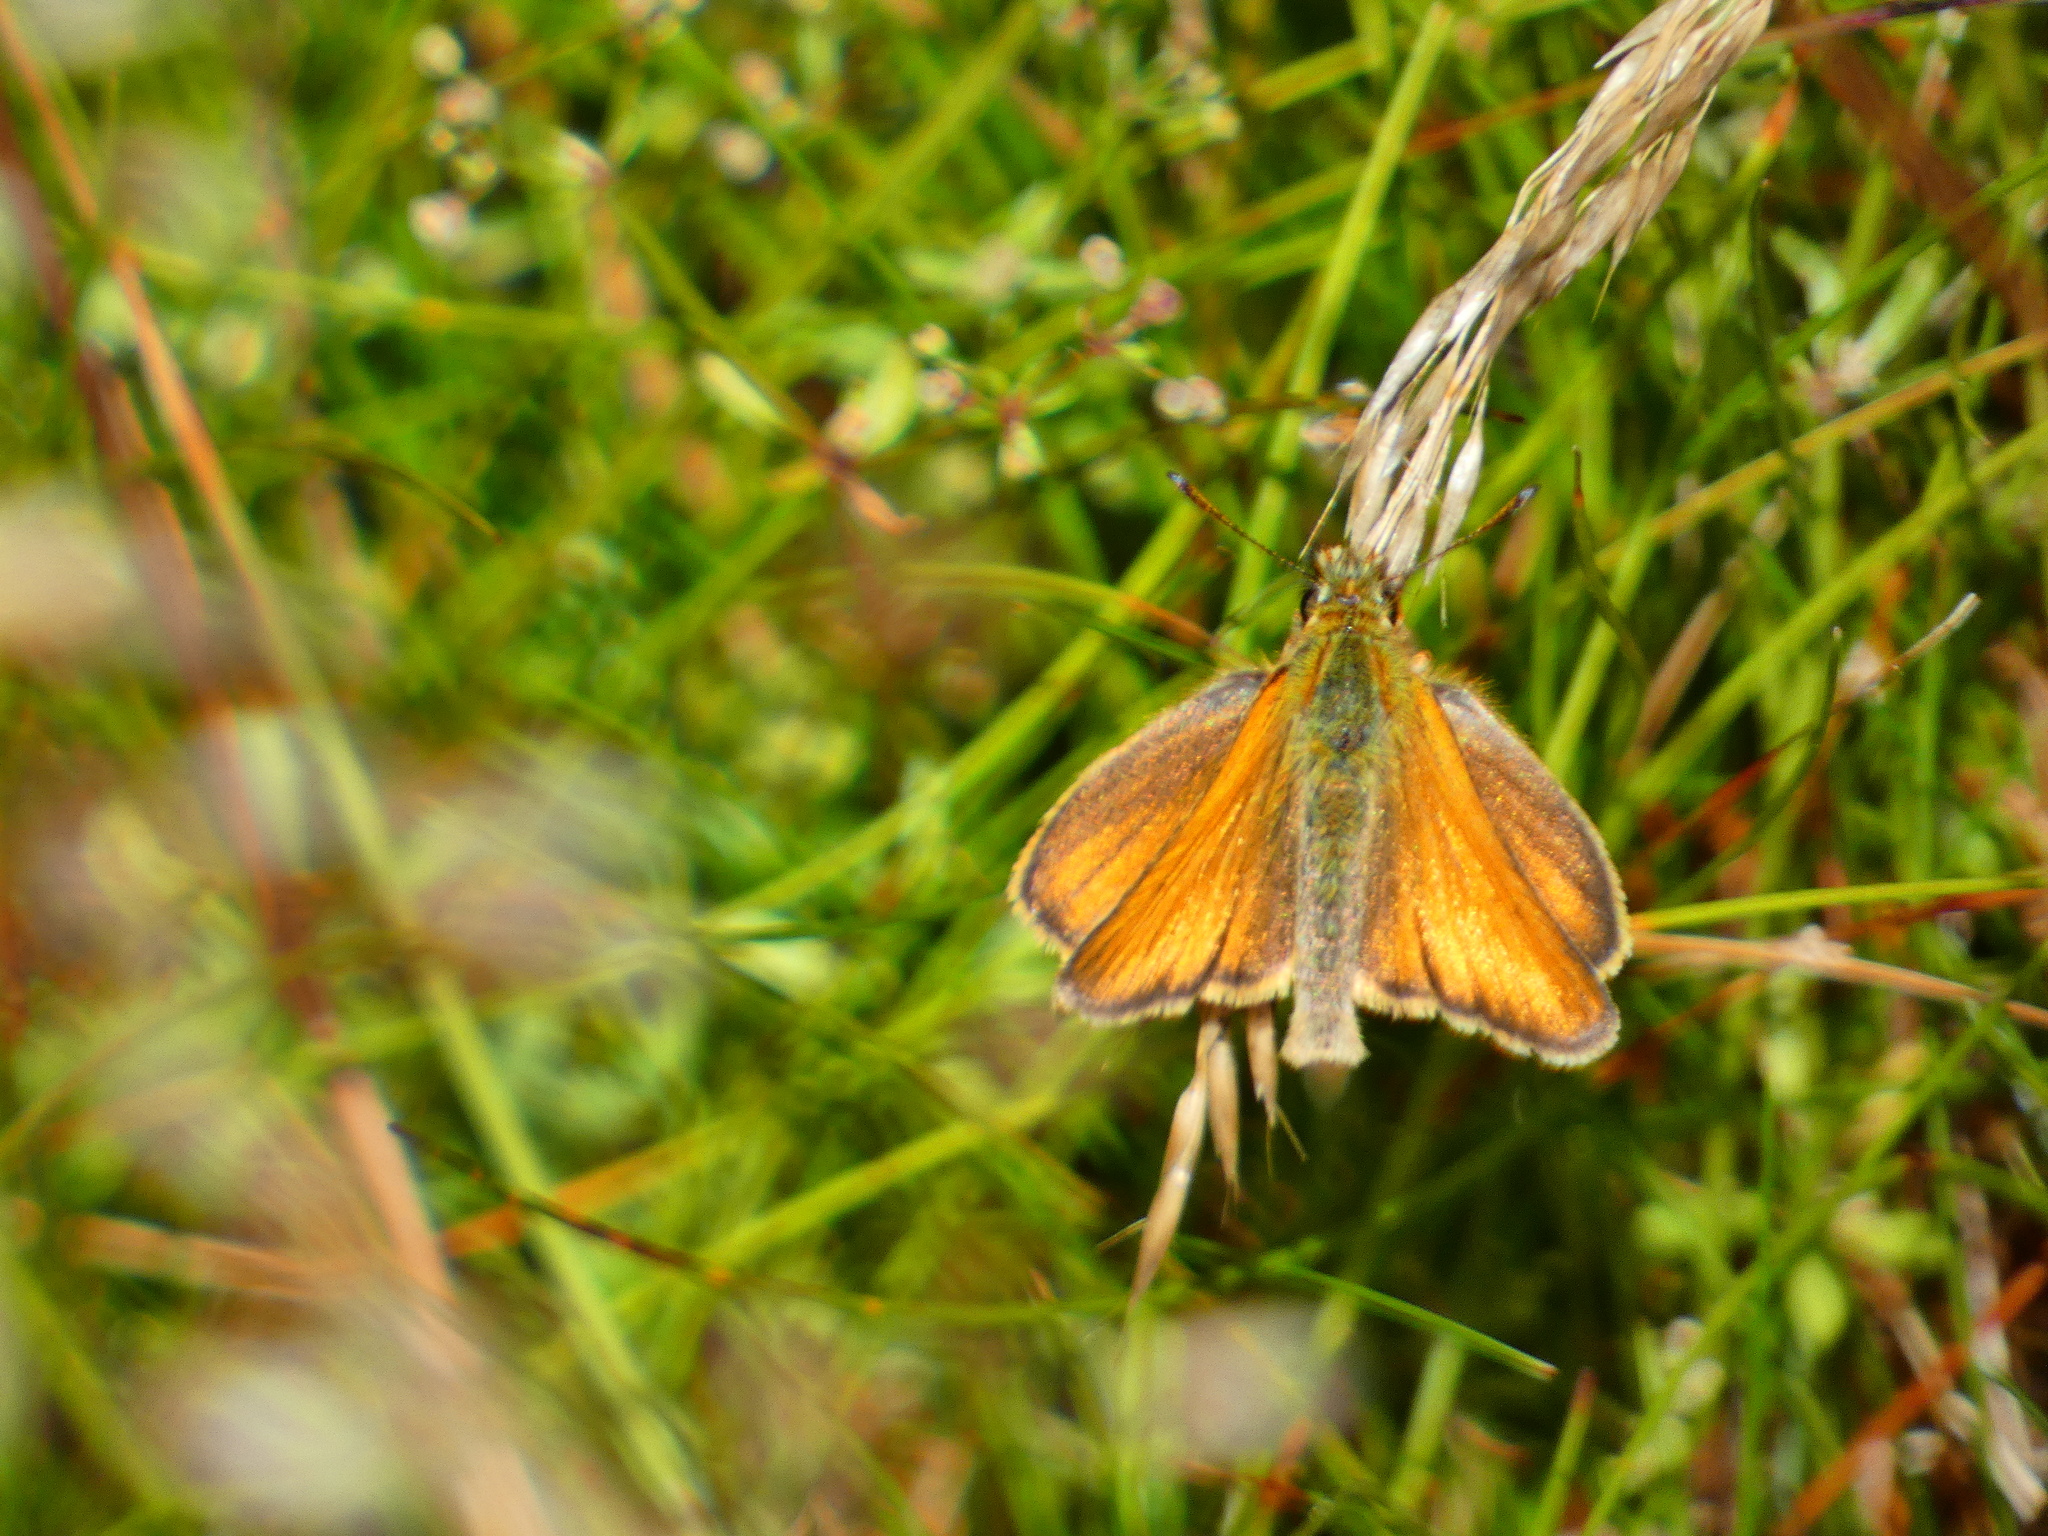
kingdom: Animalia
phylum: Arthropoda
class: Insecta
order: Lepidoptera
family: Hesperiidae
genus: Thymelicus
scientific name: Thymelicus lineola
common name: Essex skipper
